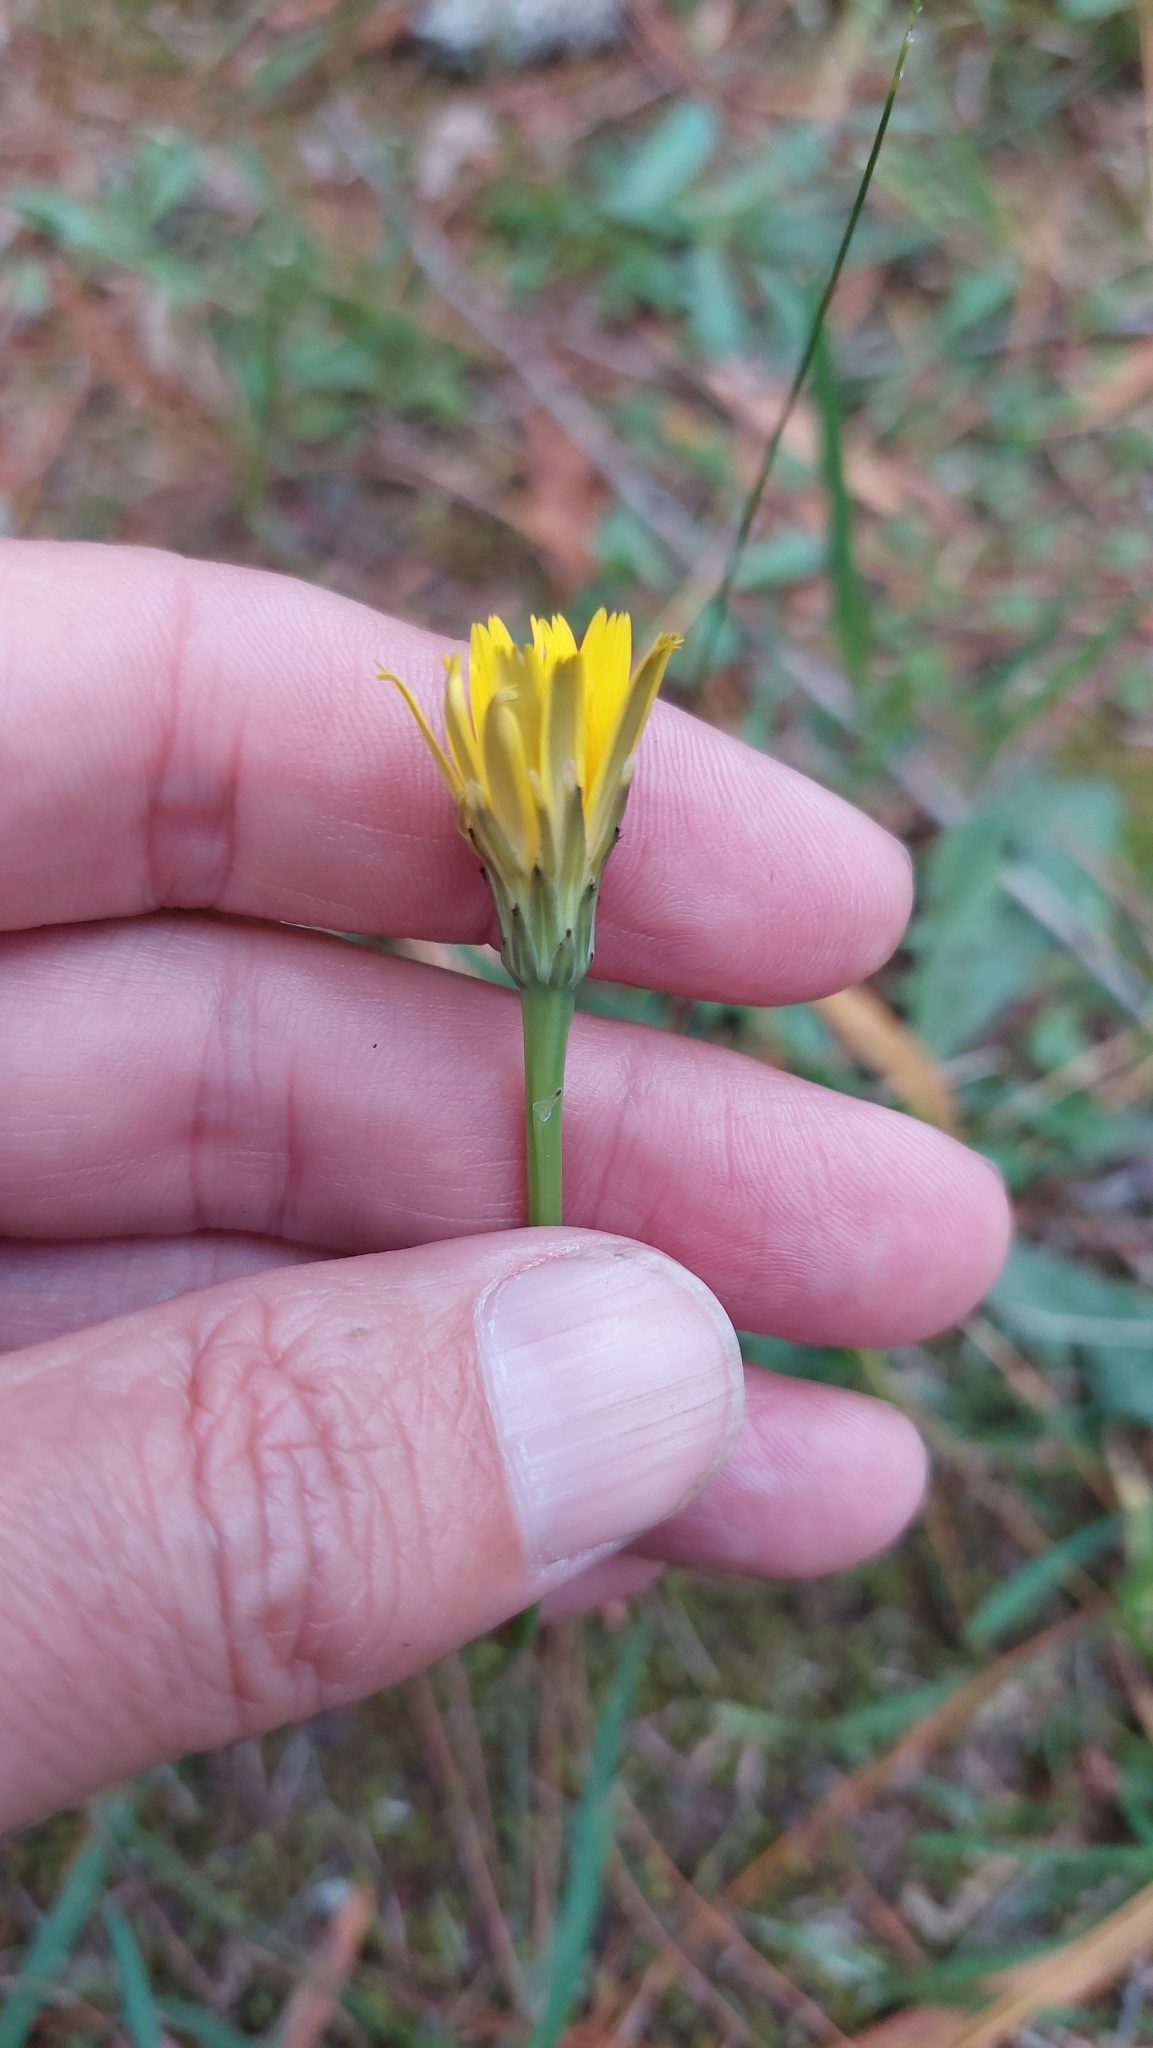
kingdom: Plantae
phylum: Tracheophyta
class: Magnoliopsida
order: Asterales
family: Asteraceae
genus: Hypochaeris
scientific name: Hypochaeris radicata
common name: Flatweed
